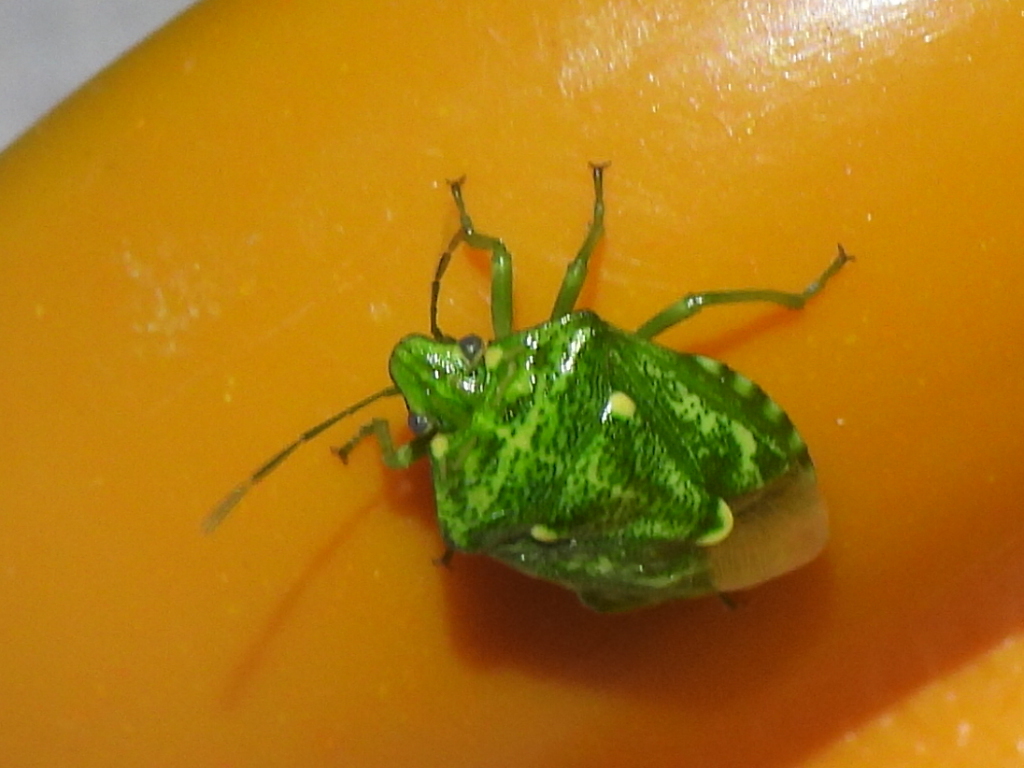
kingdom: Animalia
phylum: Arthropoda
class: Insecta
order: Hemiptera
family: Pentatomidae
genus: Banasa
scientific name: Banasa euchlora
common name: Cedar berry bug
